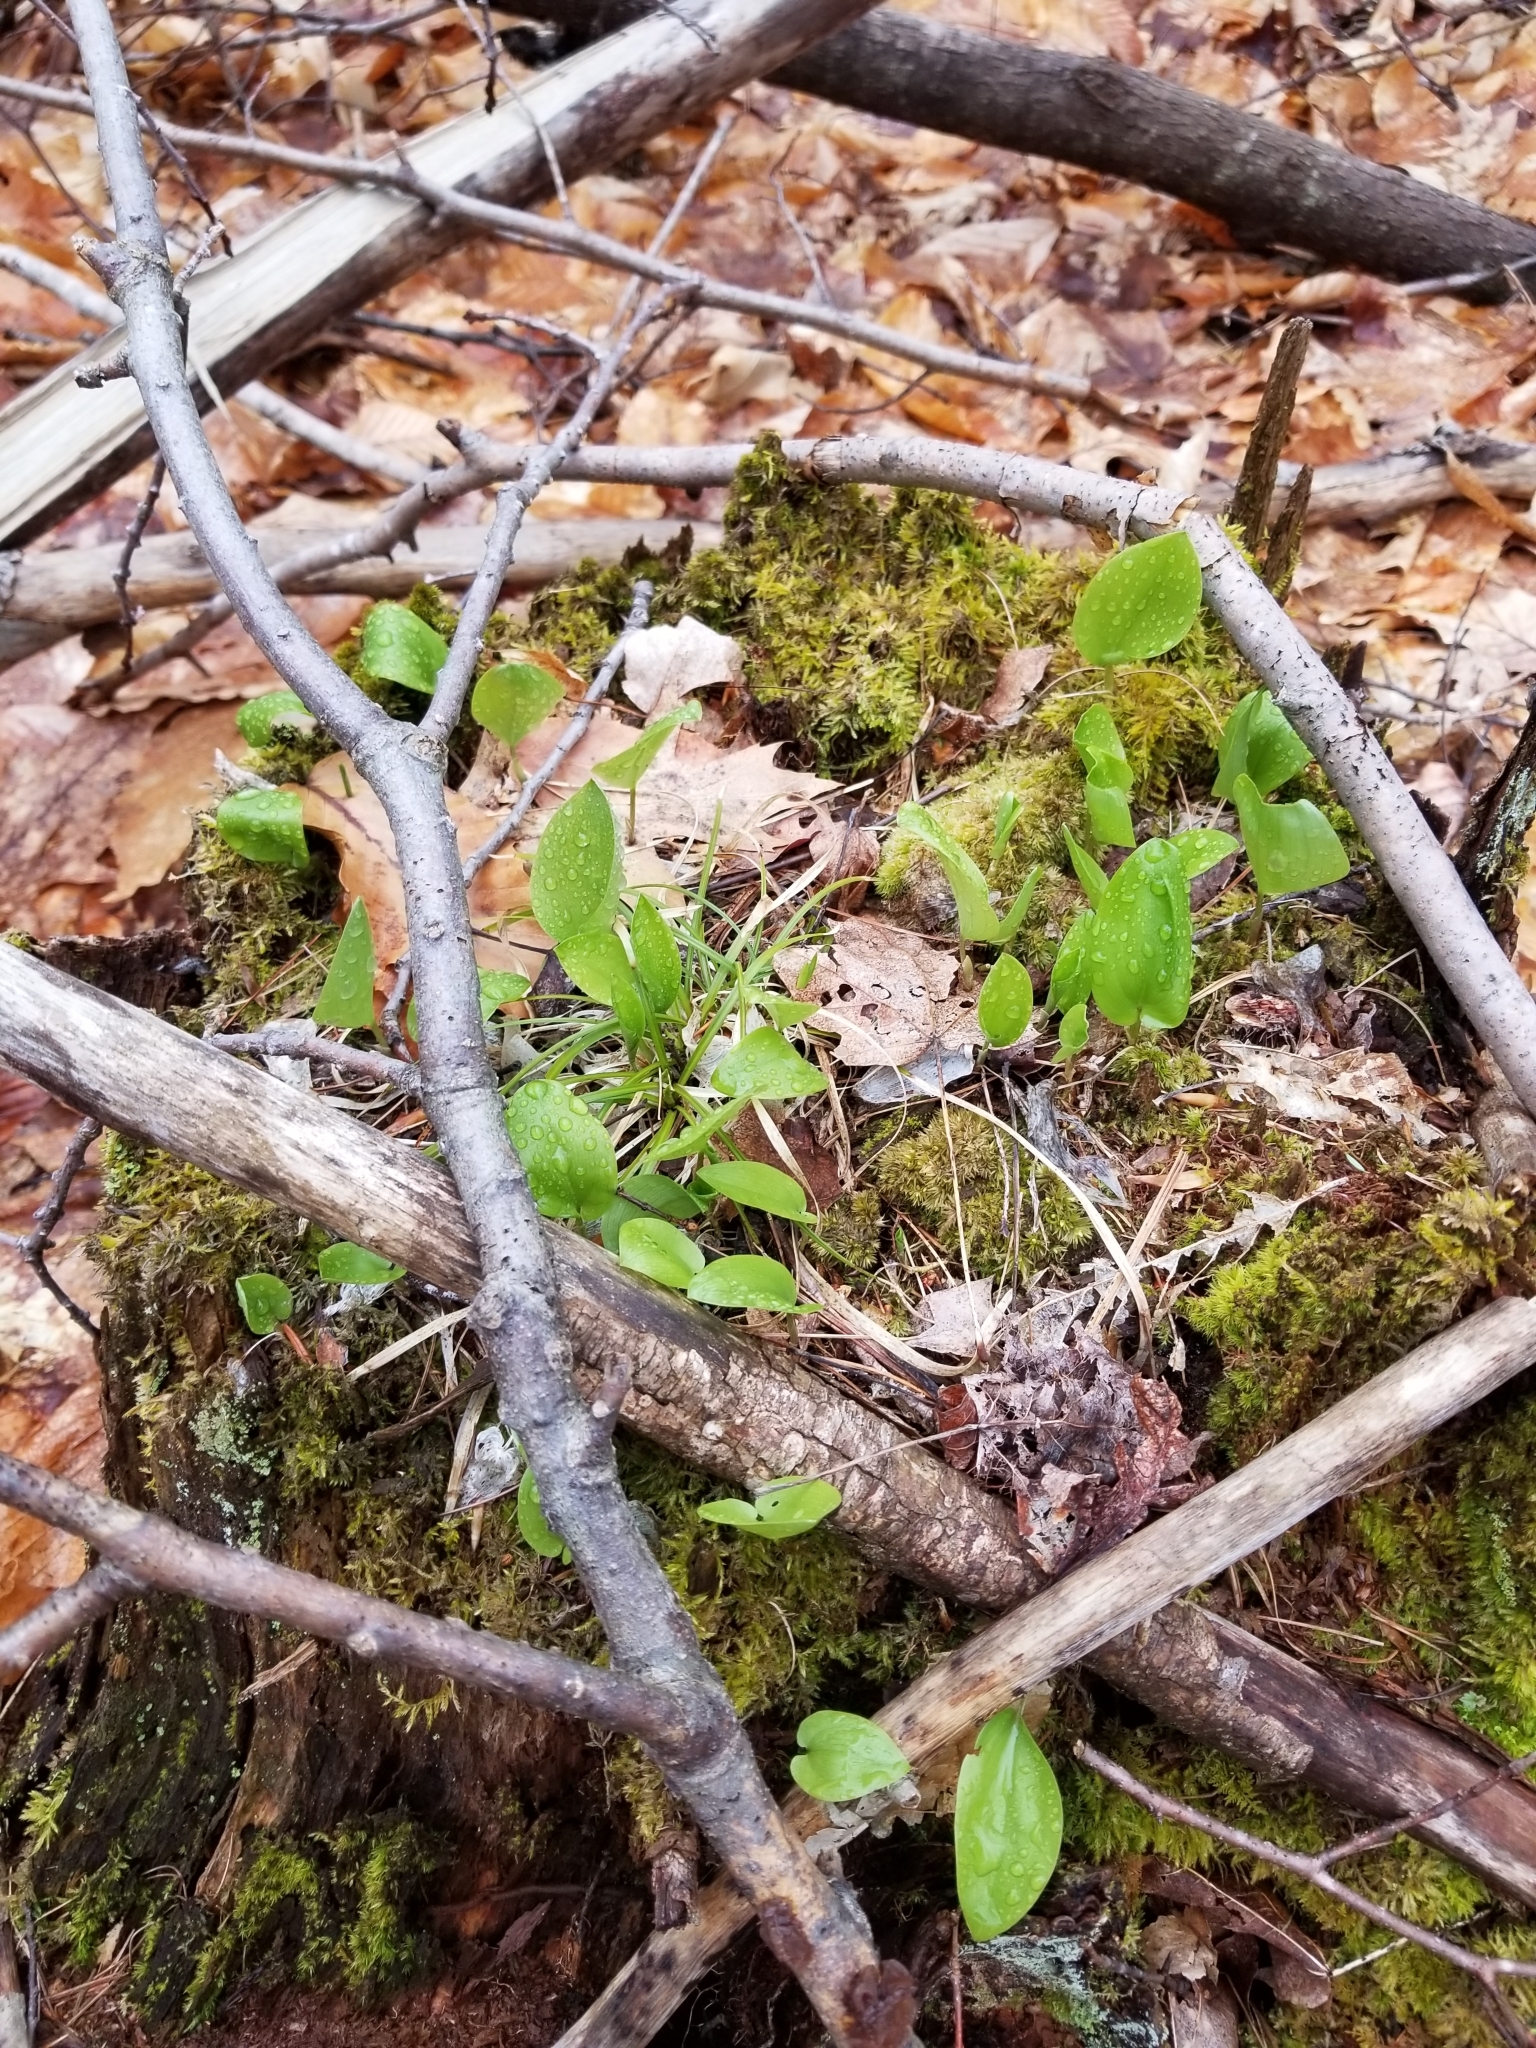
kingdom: Plantae
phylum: Tracheophyta
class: Liliopsida
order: Asparagales
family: Asparagaceae
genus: Maianthemum
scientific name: Maianthemum canadense
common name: False lily-of-the-valley
